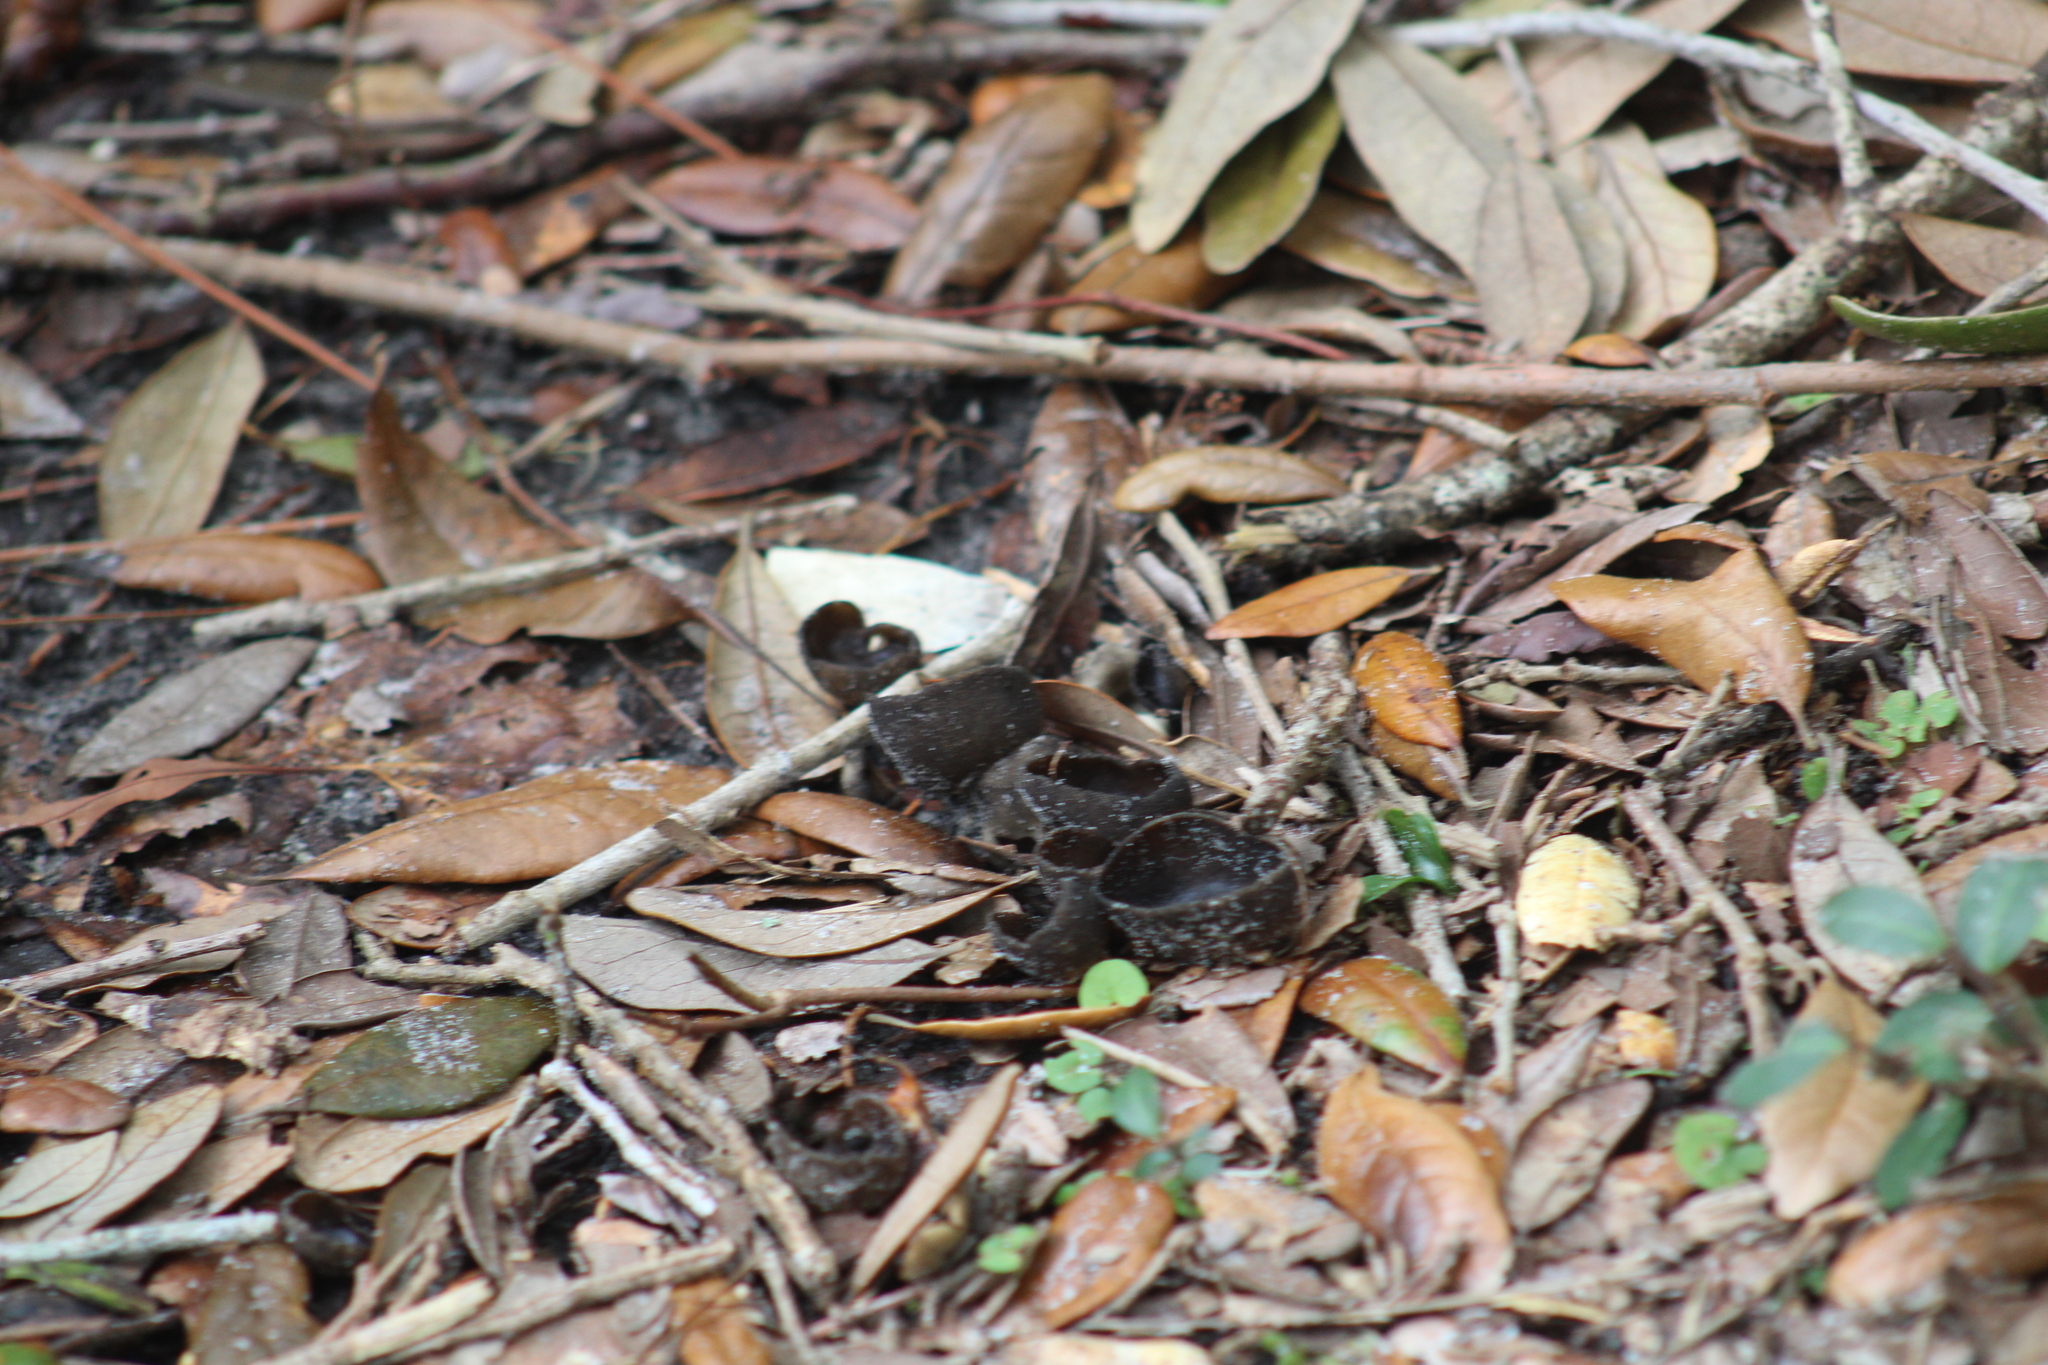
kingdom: Fungi
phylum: Ascomycota
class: Pezizomycetes
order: Pezizales
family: Sarcosomataceae
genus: Urnula
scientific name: Urnula craterium
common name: Devil's urn
